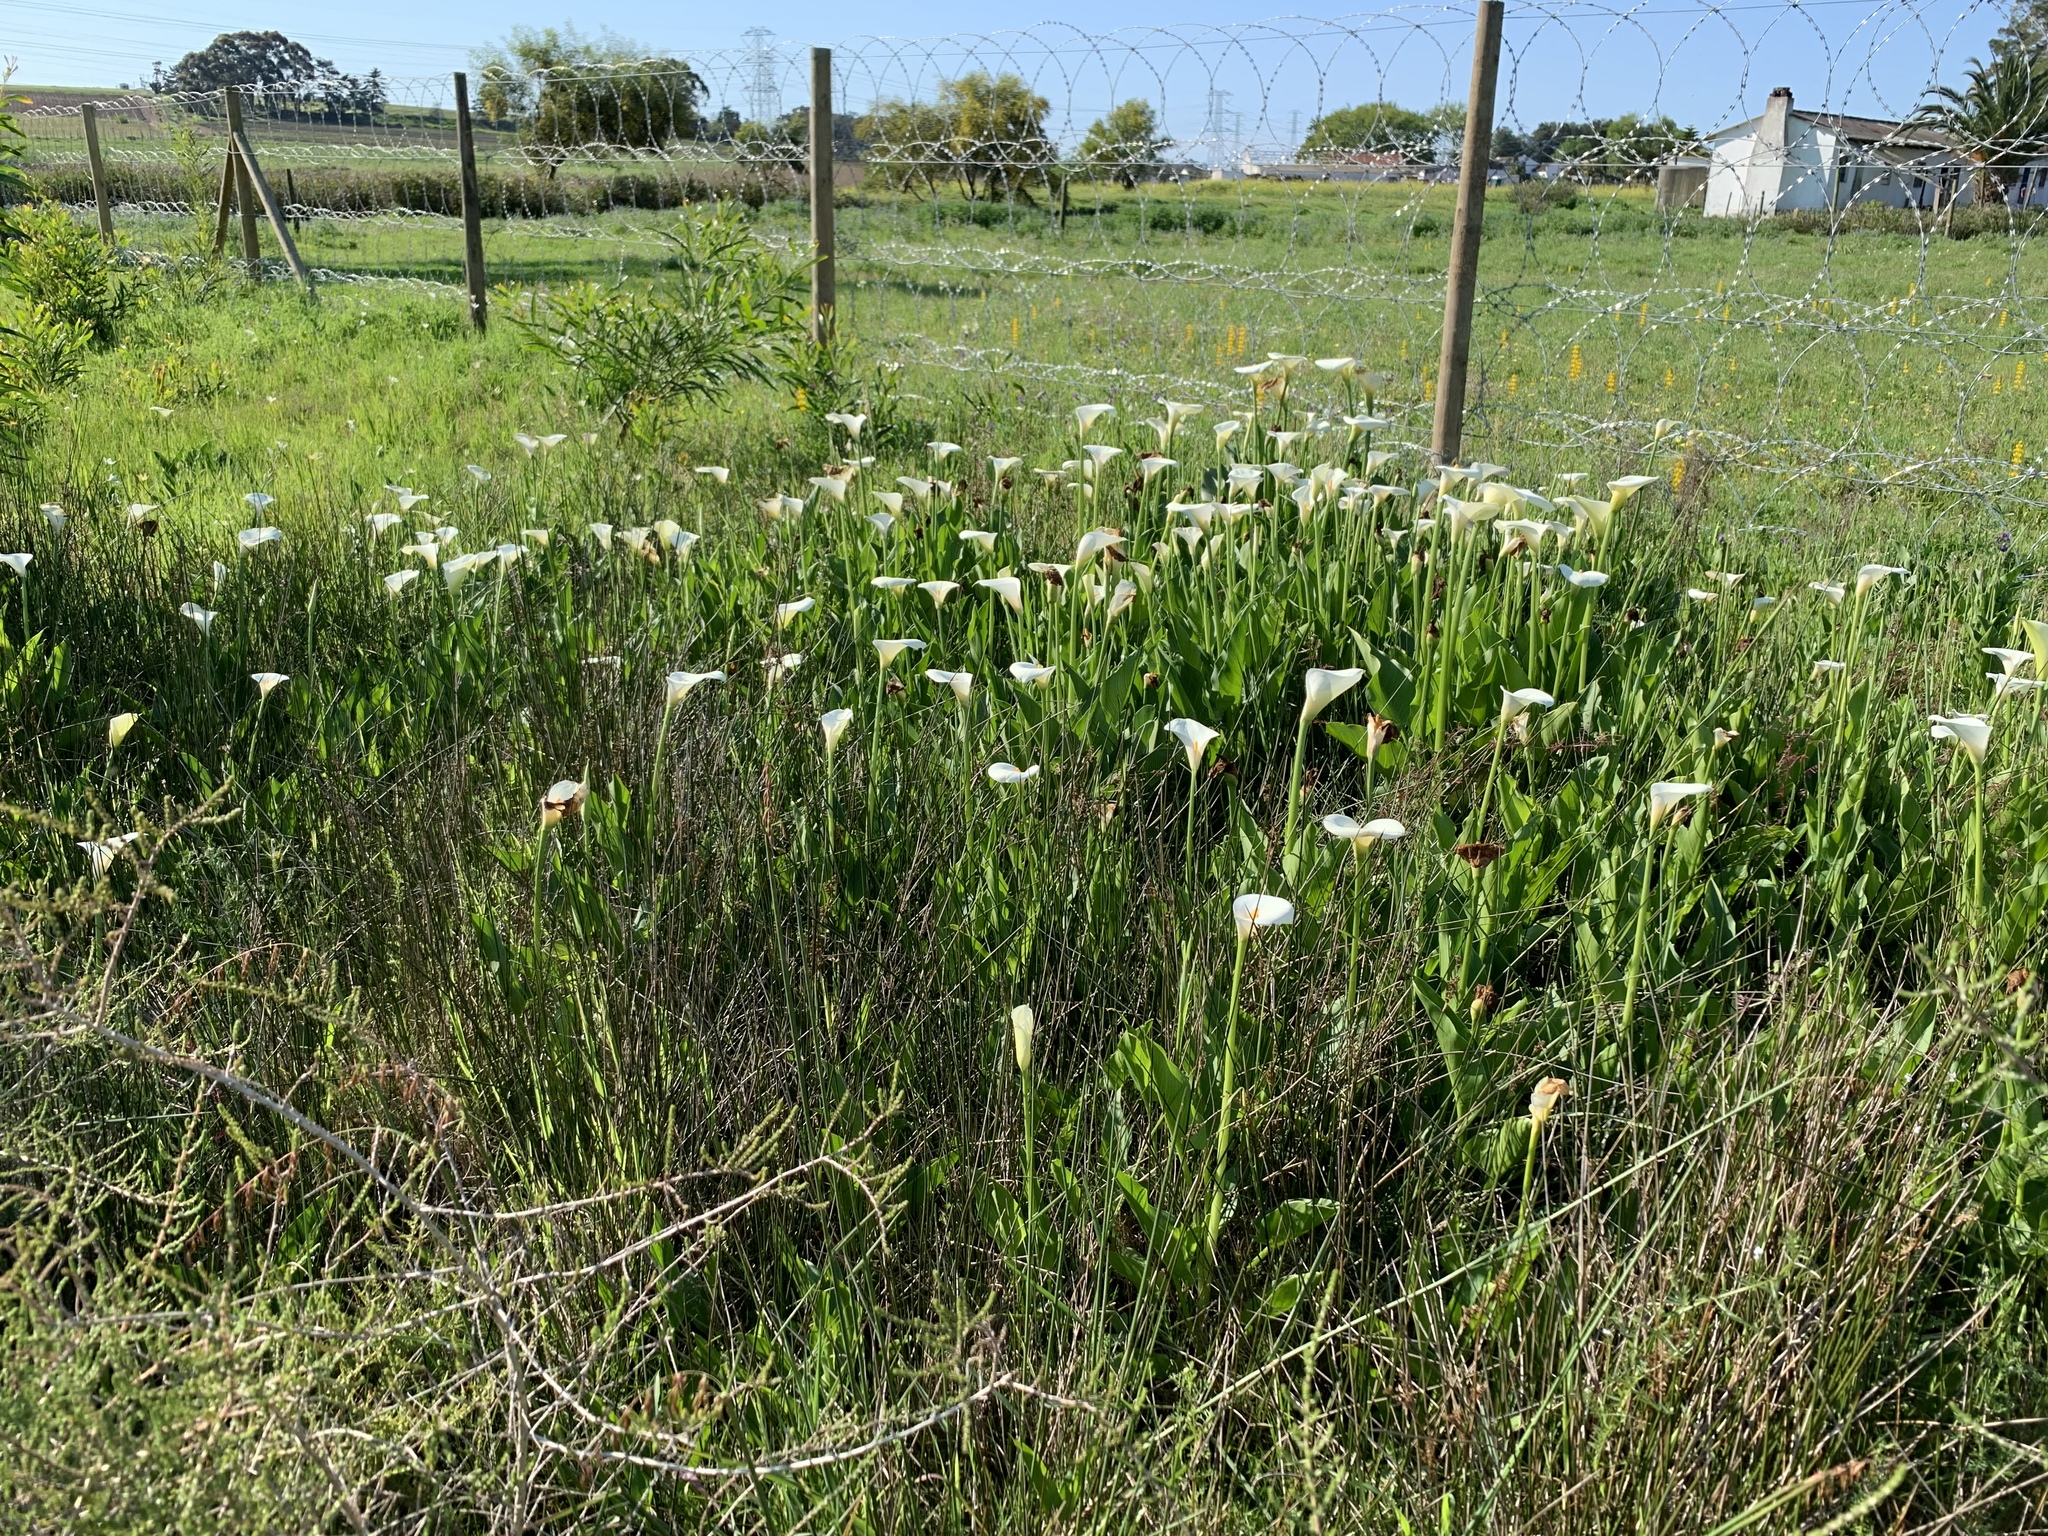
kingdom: Plantae
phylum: Tracheophyta
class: Liliopsida
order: Alismatales
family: Araceae
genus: Zantedeschia
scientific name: Zantedeschia aethiopica
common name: Altar-lily
